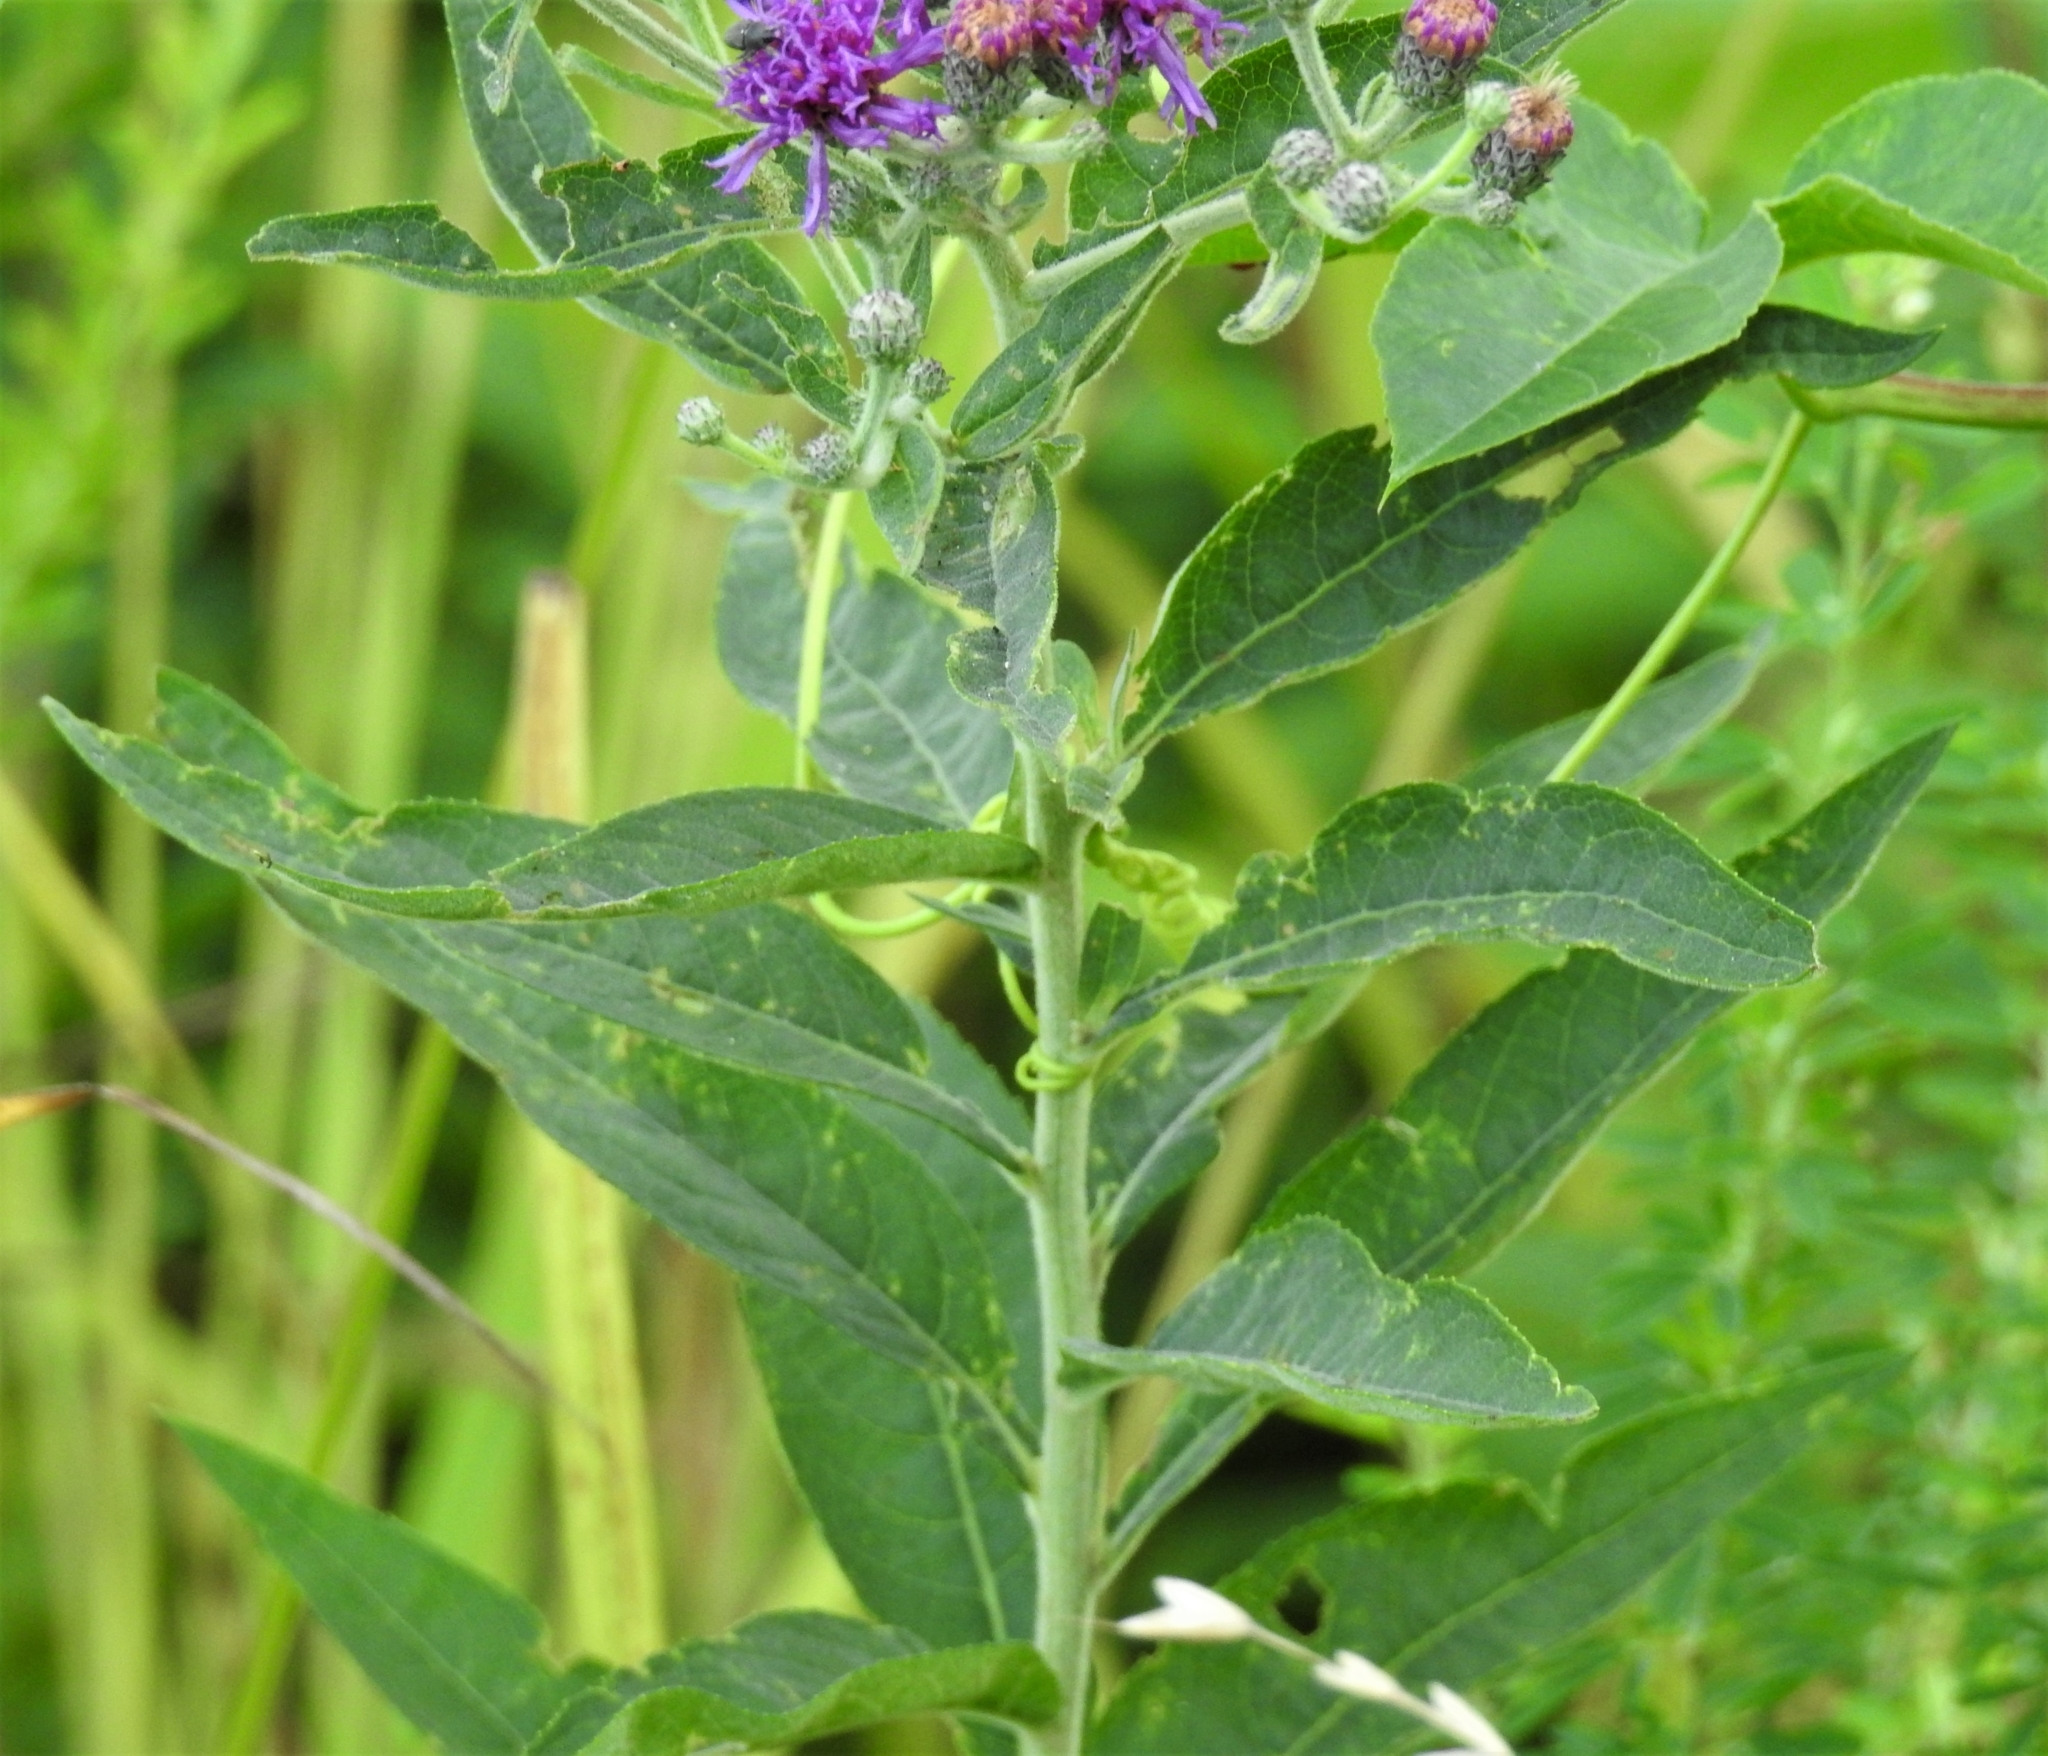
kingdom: Plantae
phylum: Tracheophyta
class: Magnoliopsida
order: Asterales
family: Asteraceae
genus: Vernonia
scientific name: Vernonia baldwinii
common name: Western ironweed
